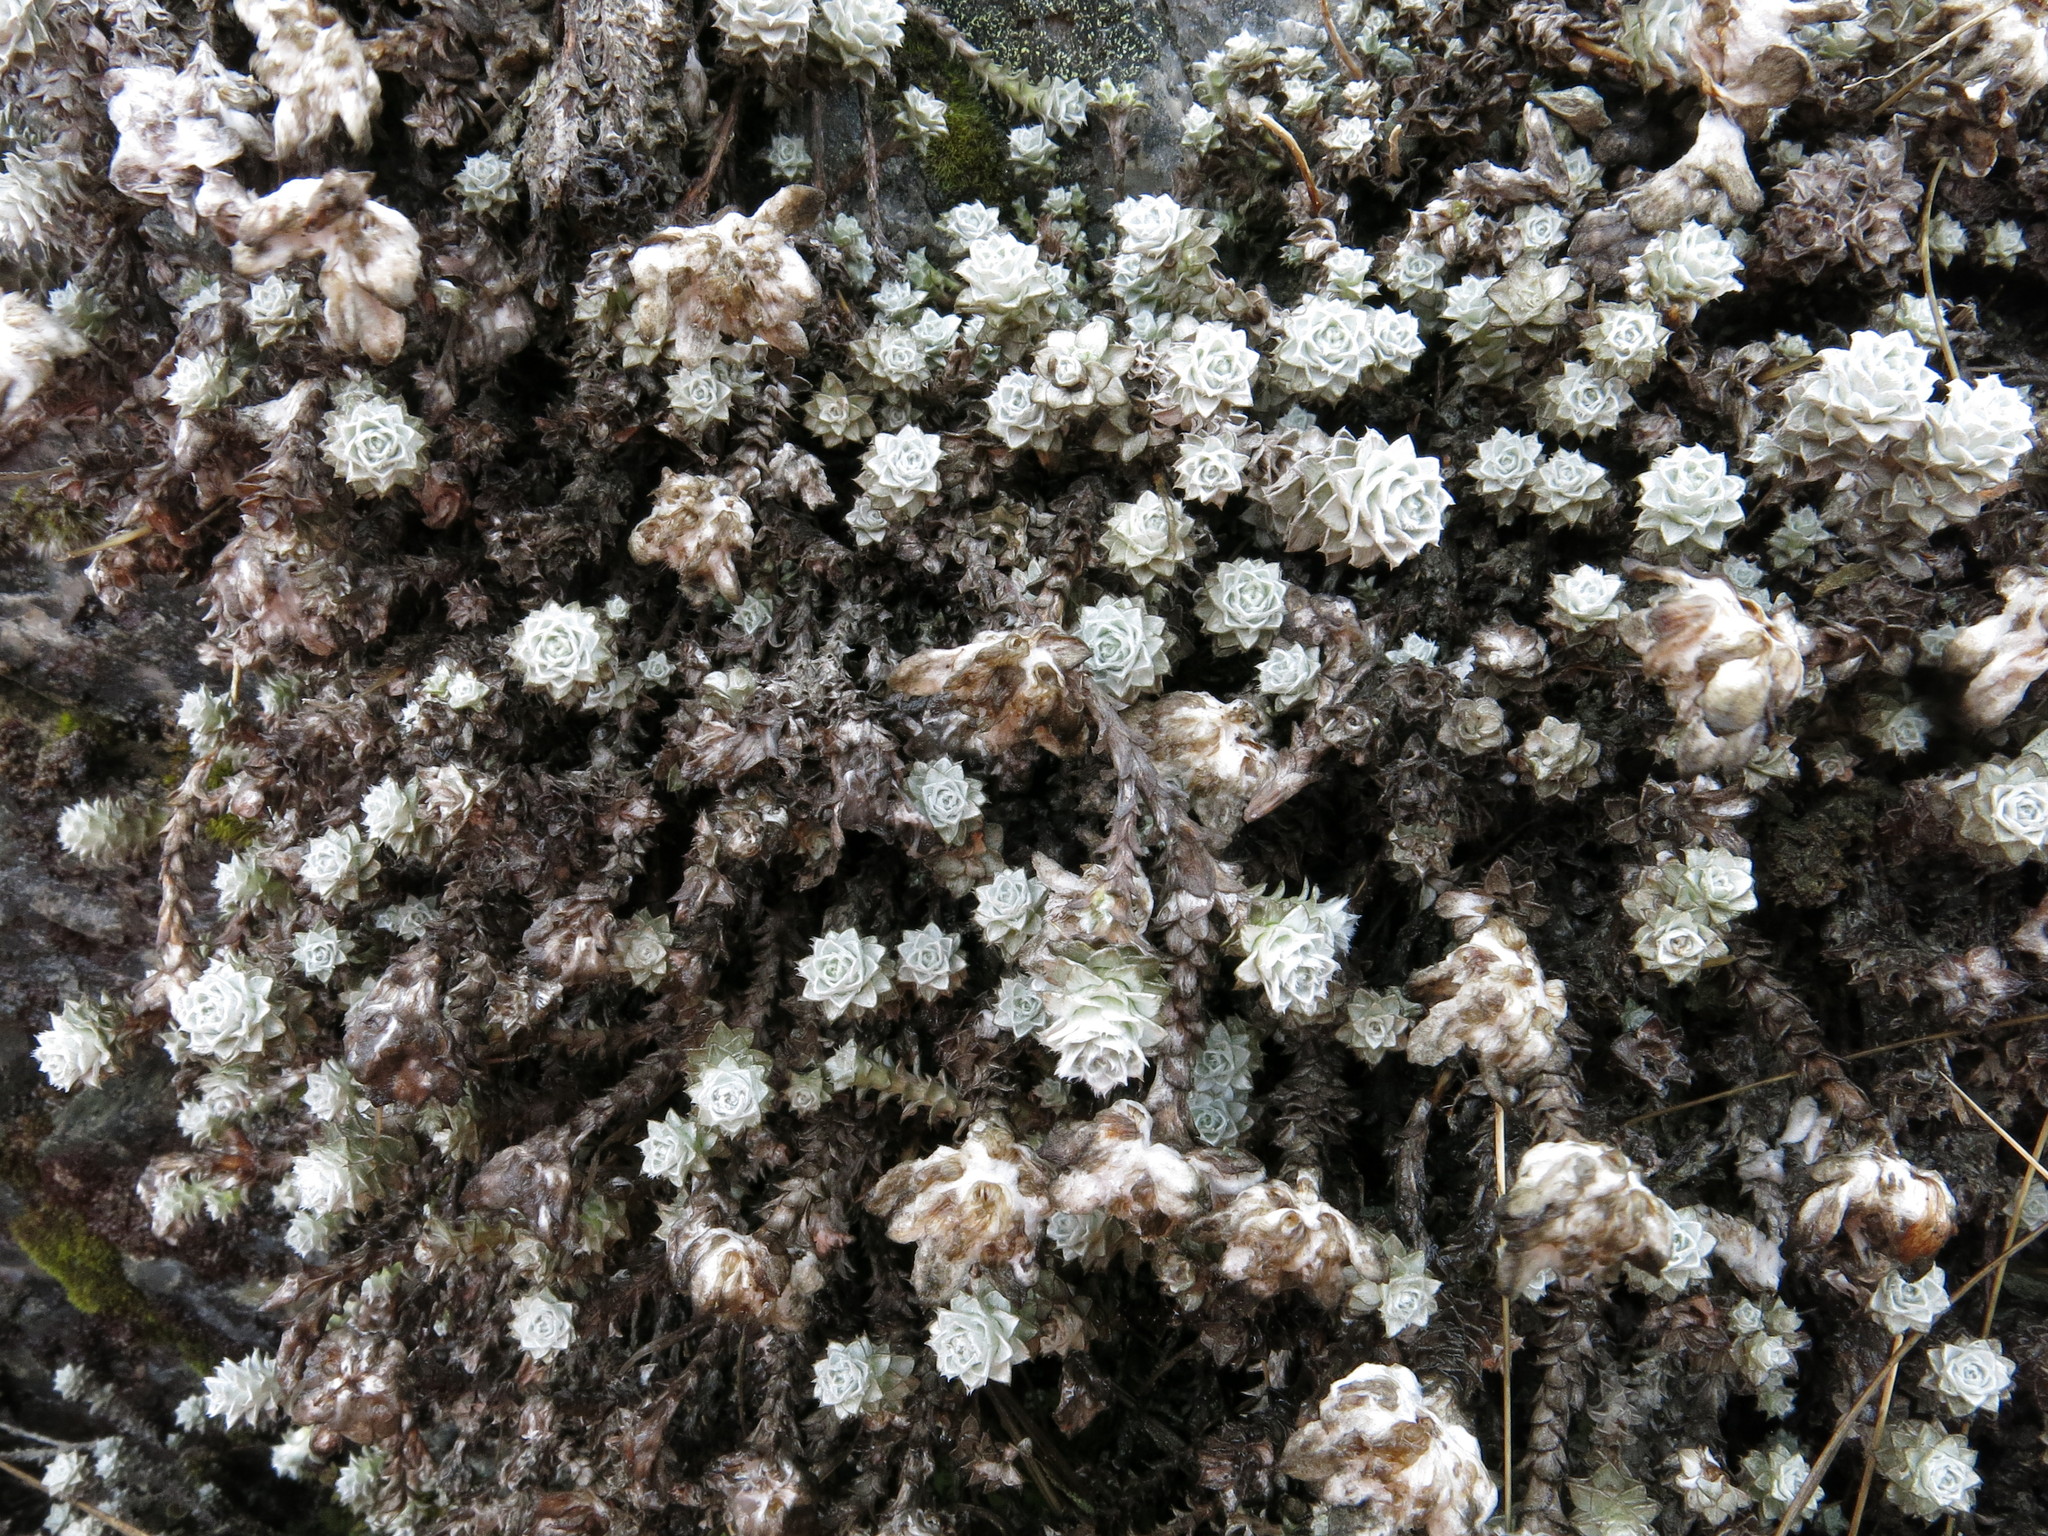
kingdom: Plantae
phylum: Tracheophyta
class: Magnoliopsida
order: Asterales
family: Asteraceae
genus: Leucogenes
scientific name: Leucogenes grandiceps
